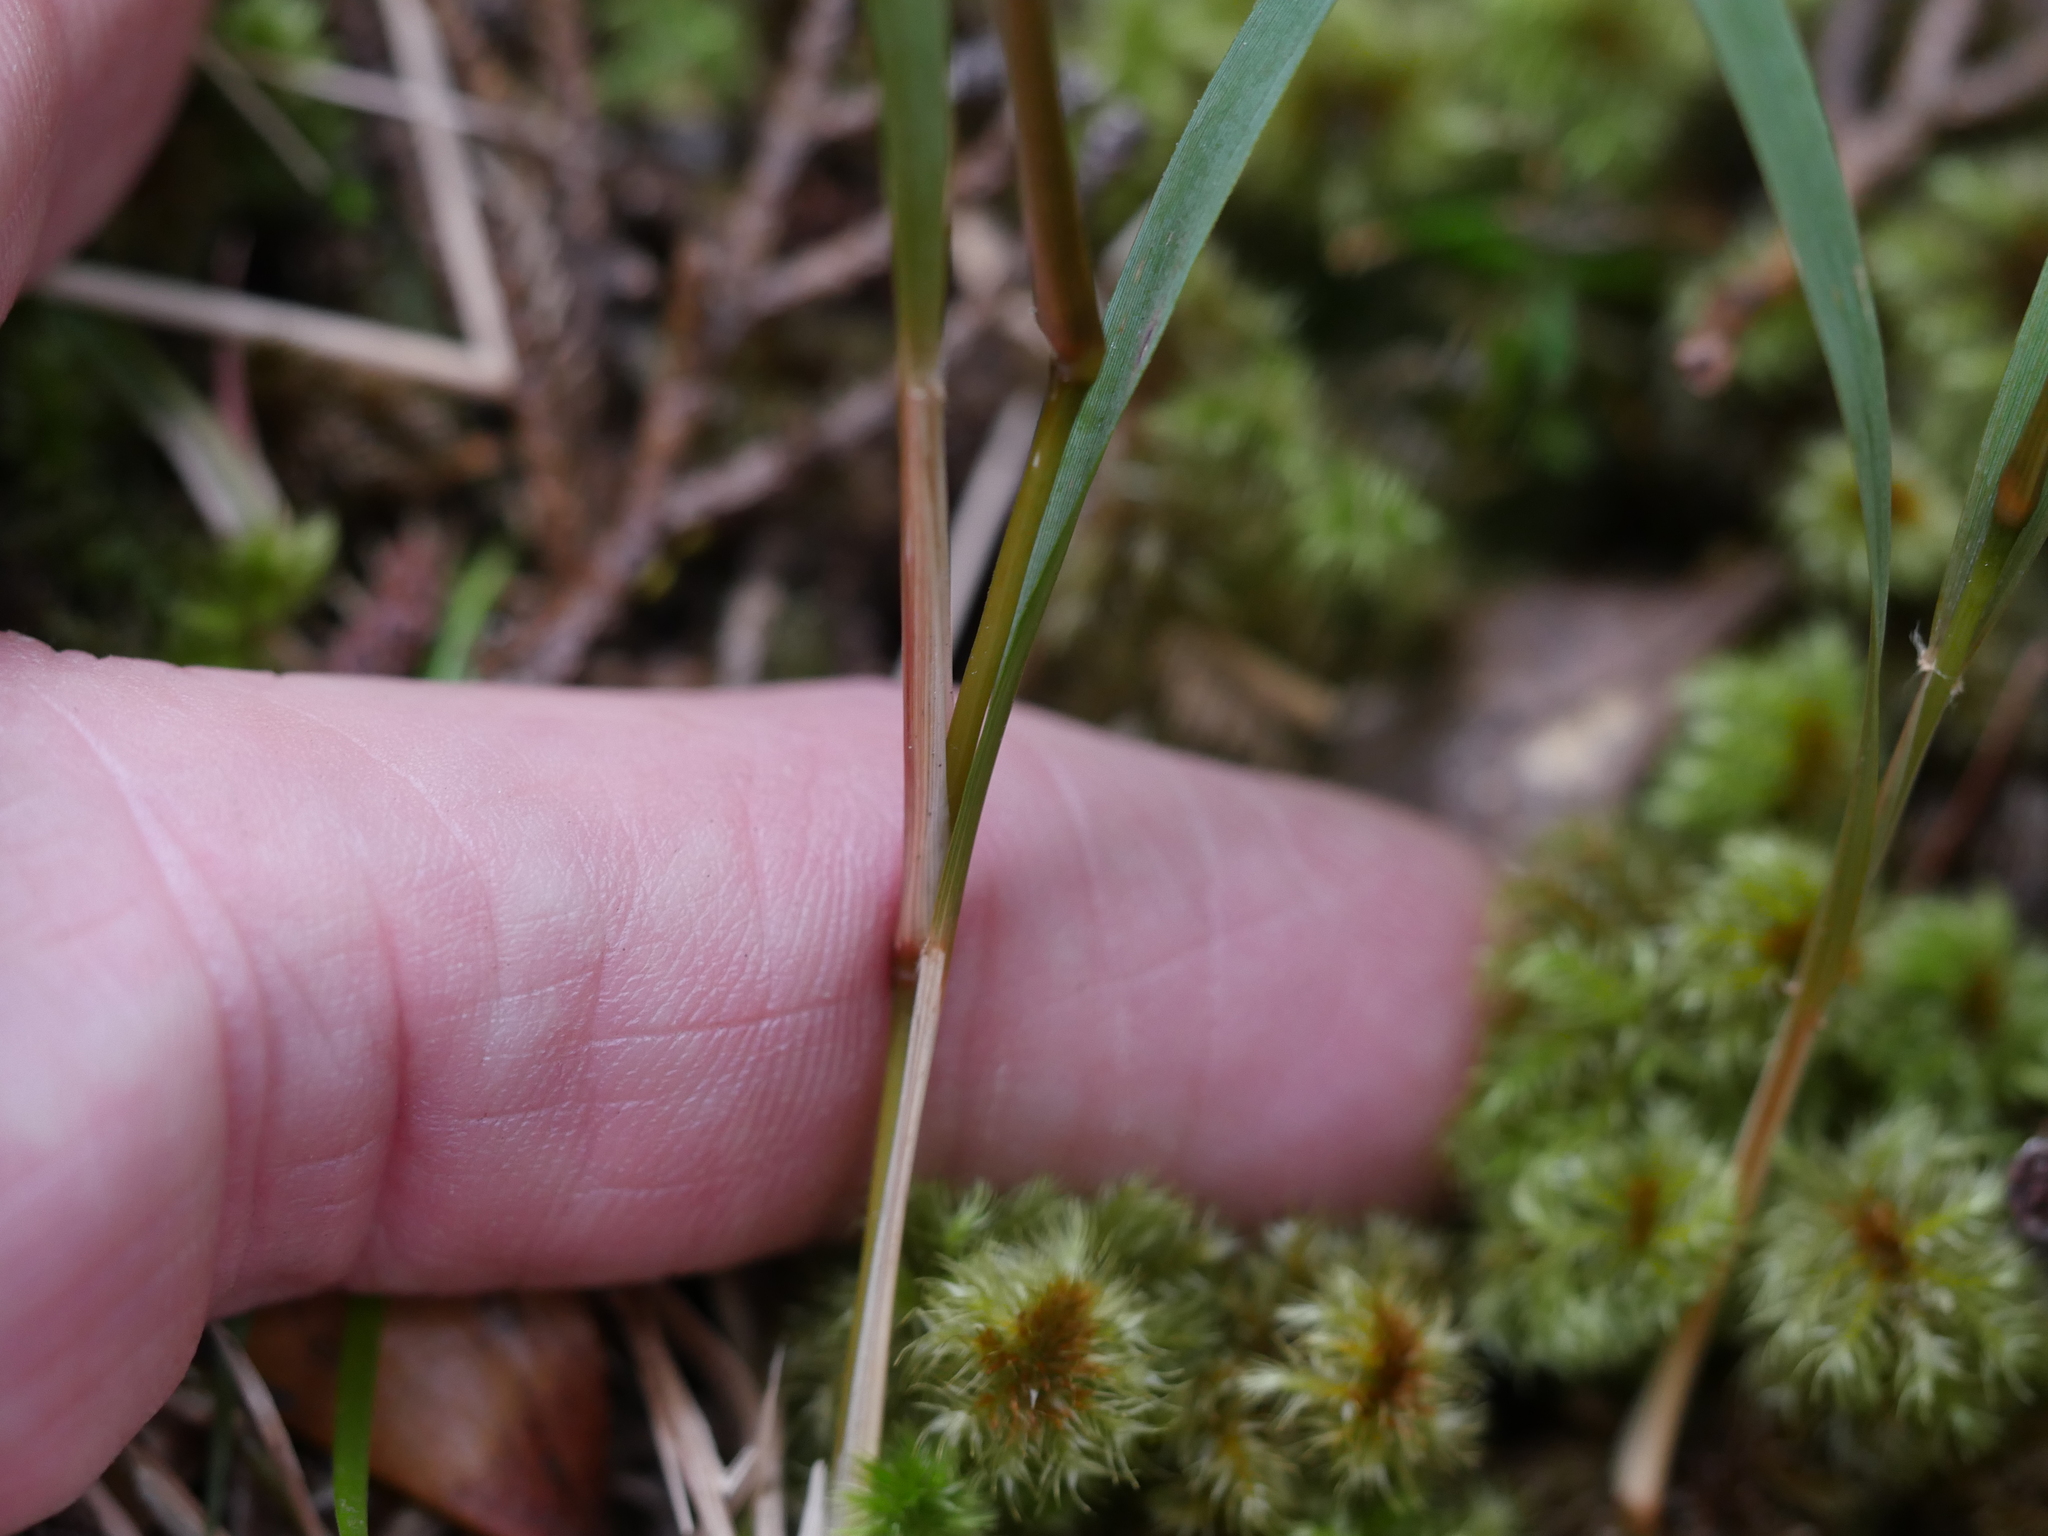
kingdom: Plantae
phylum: Tracheophyta
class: Liliopsida
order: Poales
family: Poaceae
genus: Ehrharta
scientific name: Ehrharta diplax
